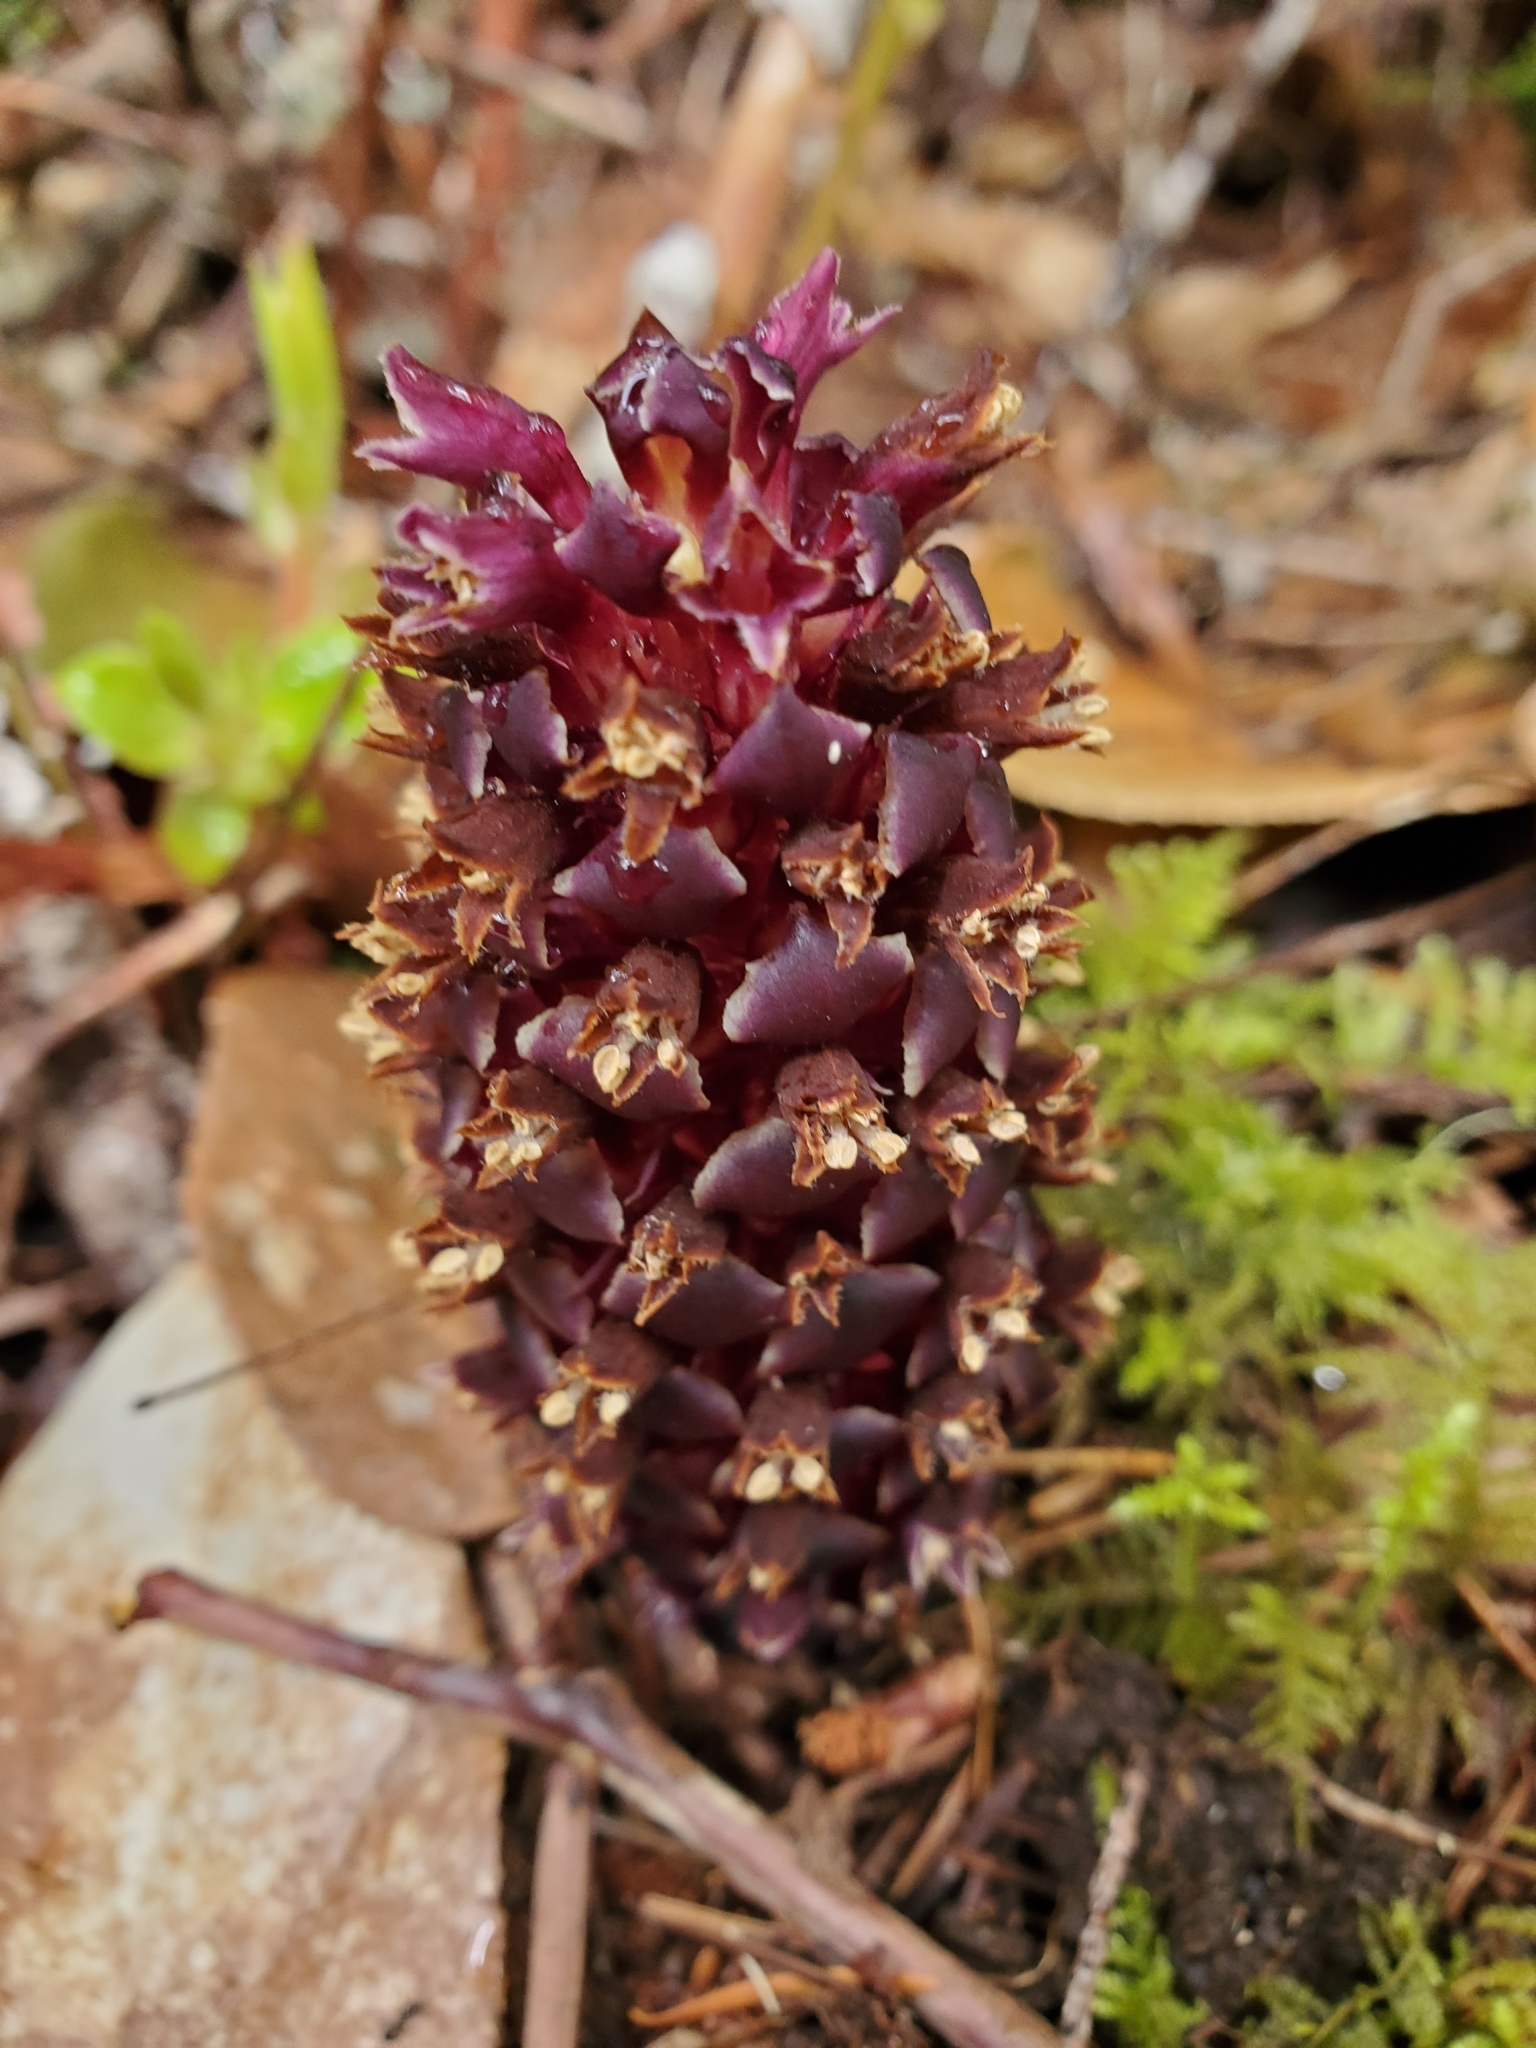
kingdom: Plantae
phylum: Tracheophyta
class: Magnoliopsida
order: Lamiales
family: Orobanchaceae
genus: Kopsiopsis
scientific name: Kopsiopsis hookeri
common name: Hooker's groundcone
